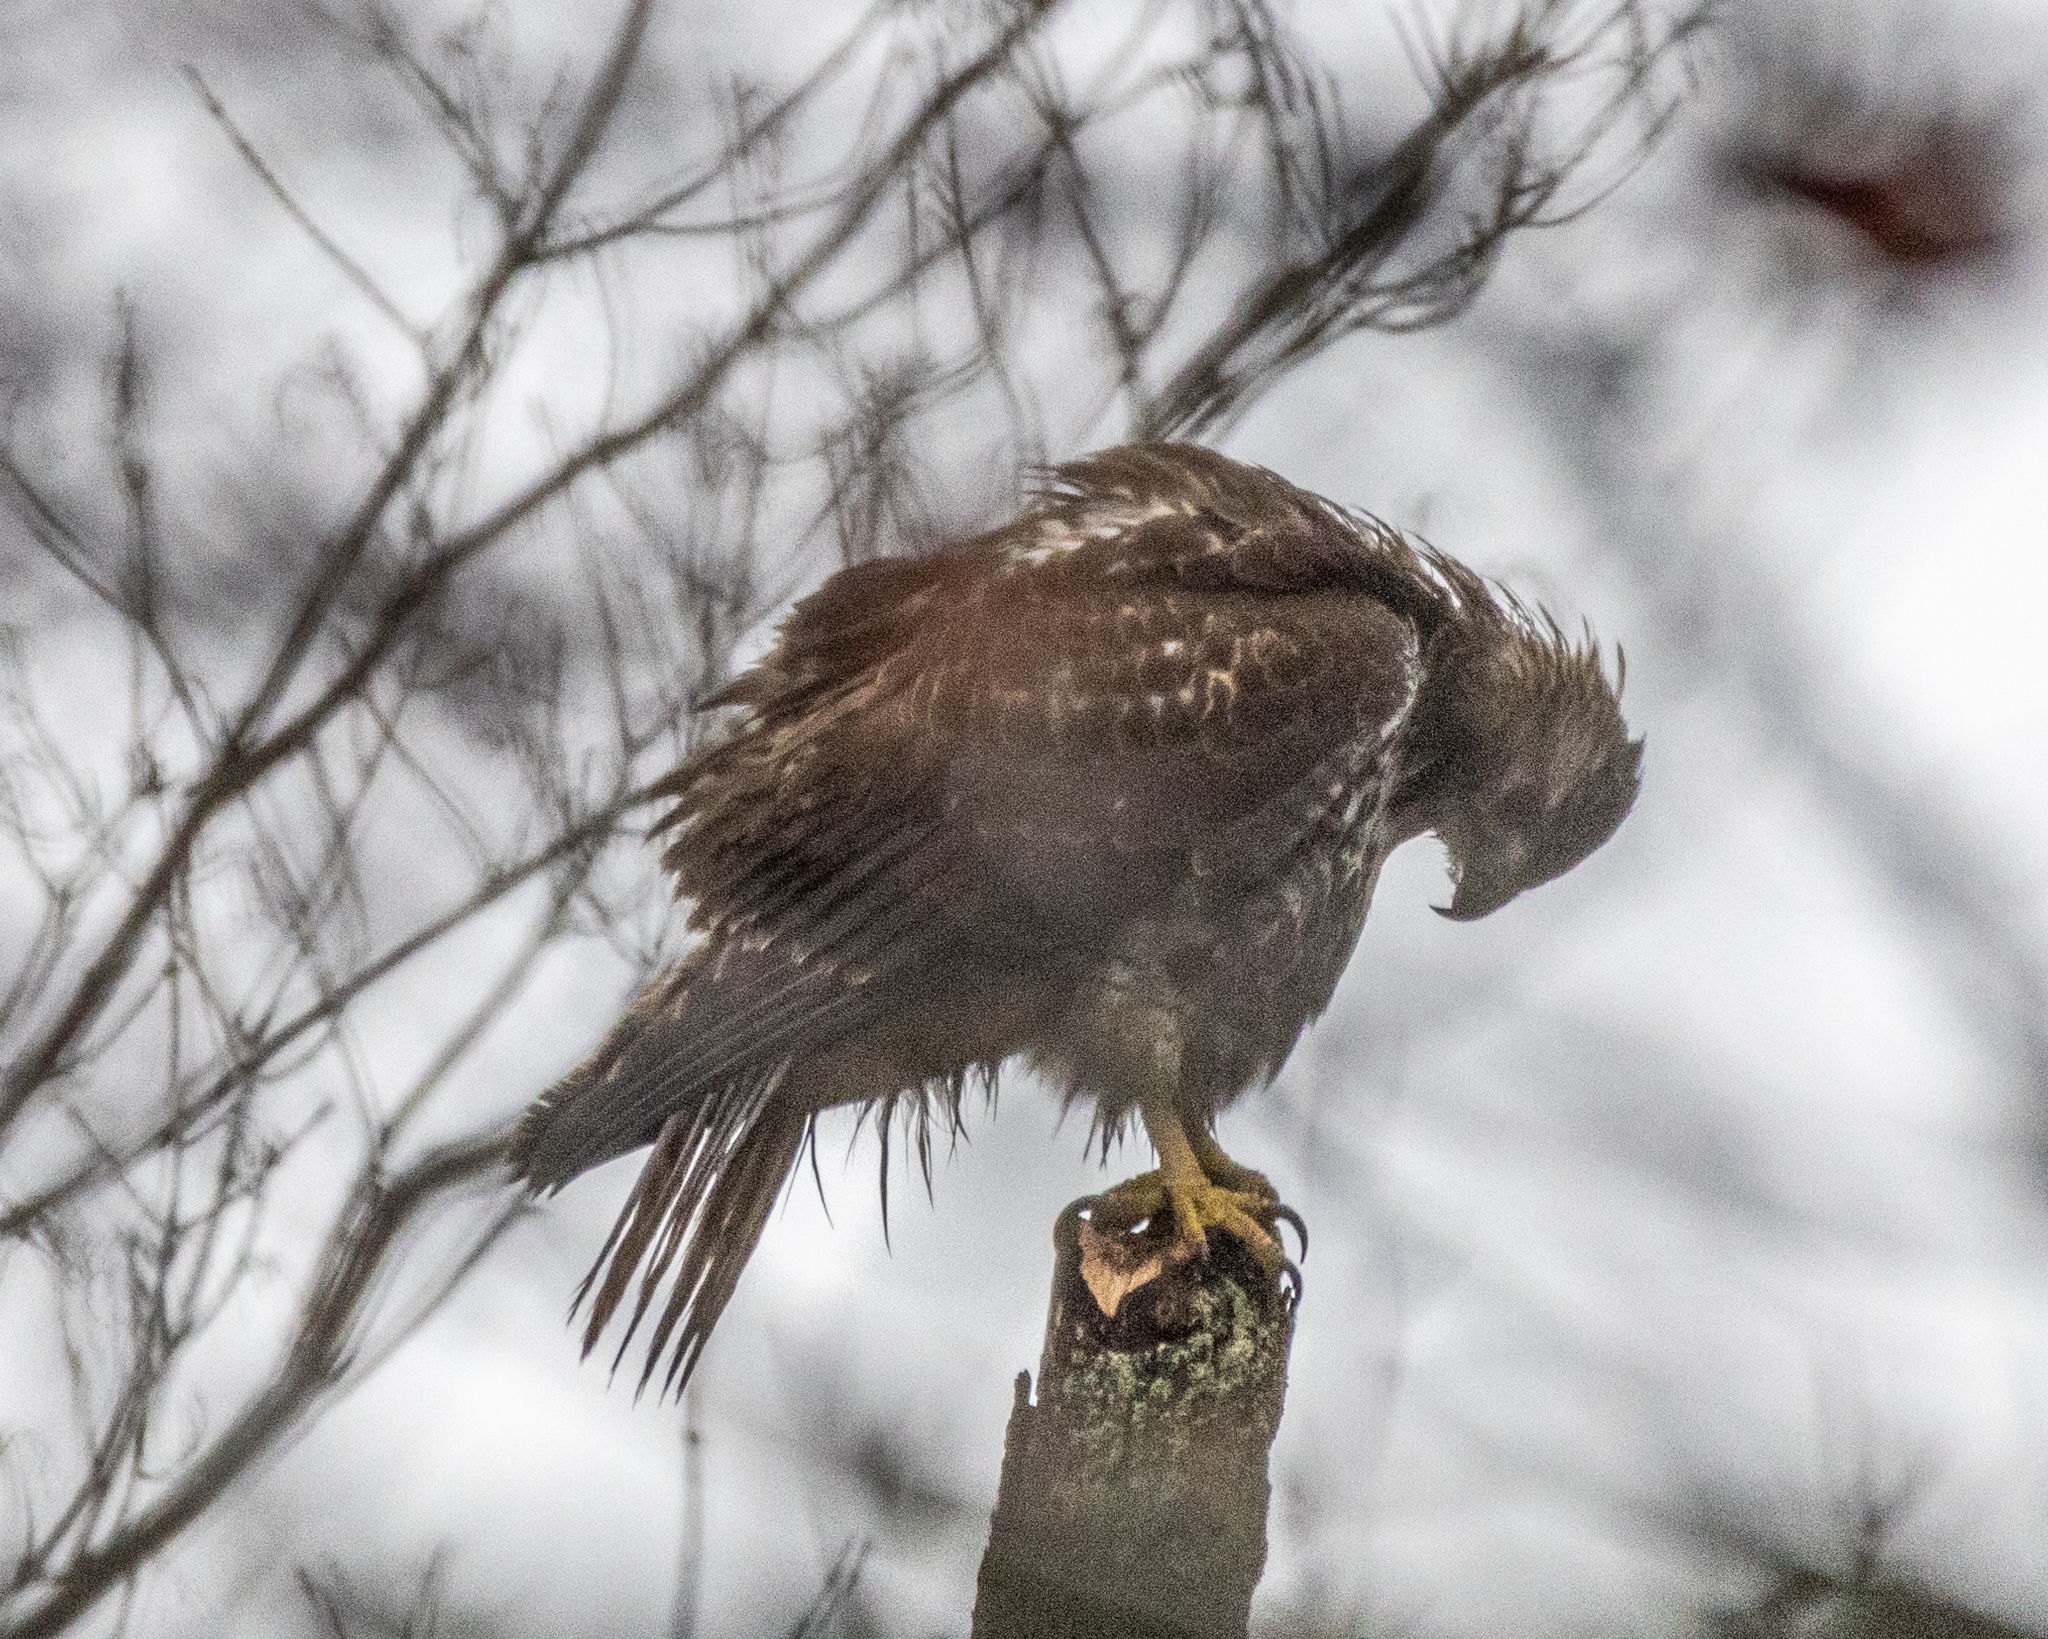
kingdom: Animalia
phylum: Chordata
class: Aves
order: Accipitriformes
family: Accipitridae
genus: Buteo
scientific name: Buteo jamaicensis
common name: Red-tailed hawk
